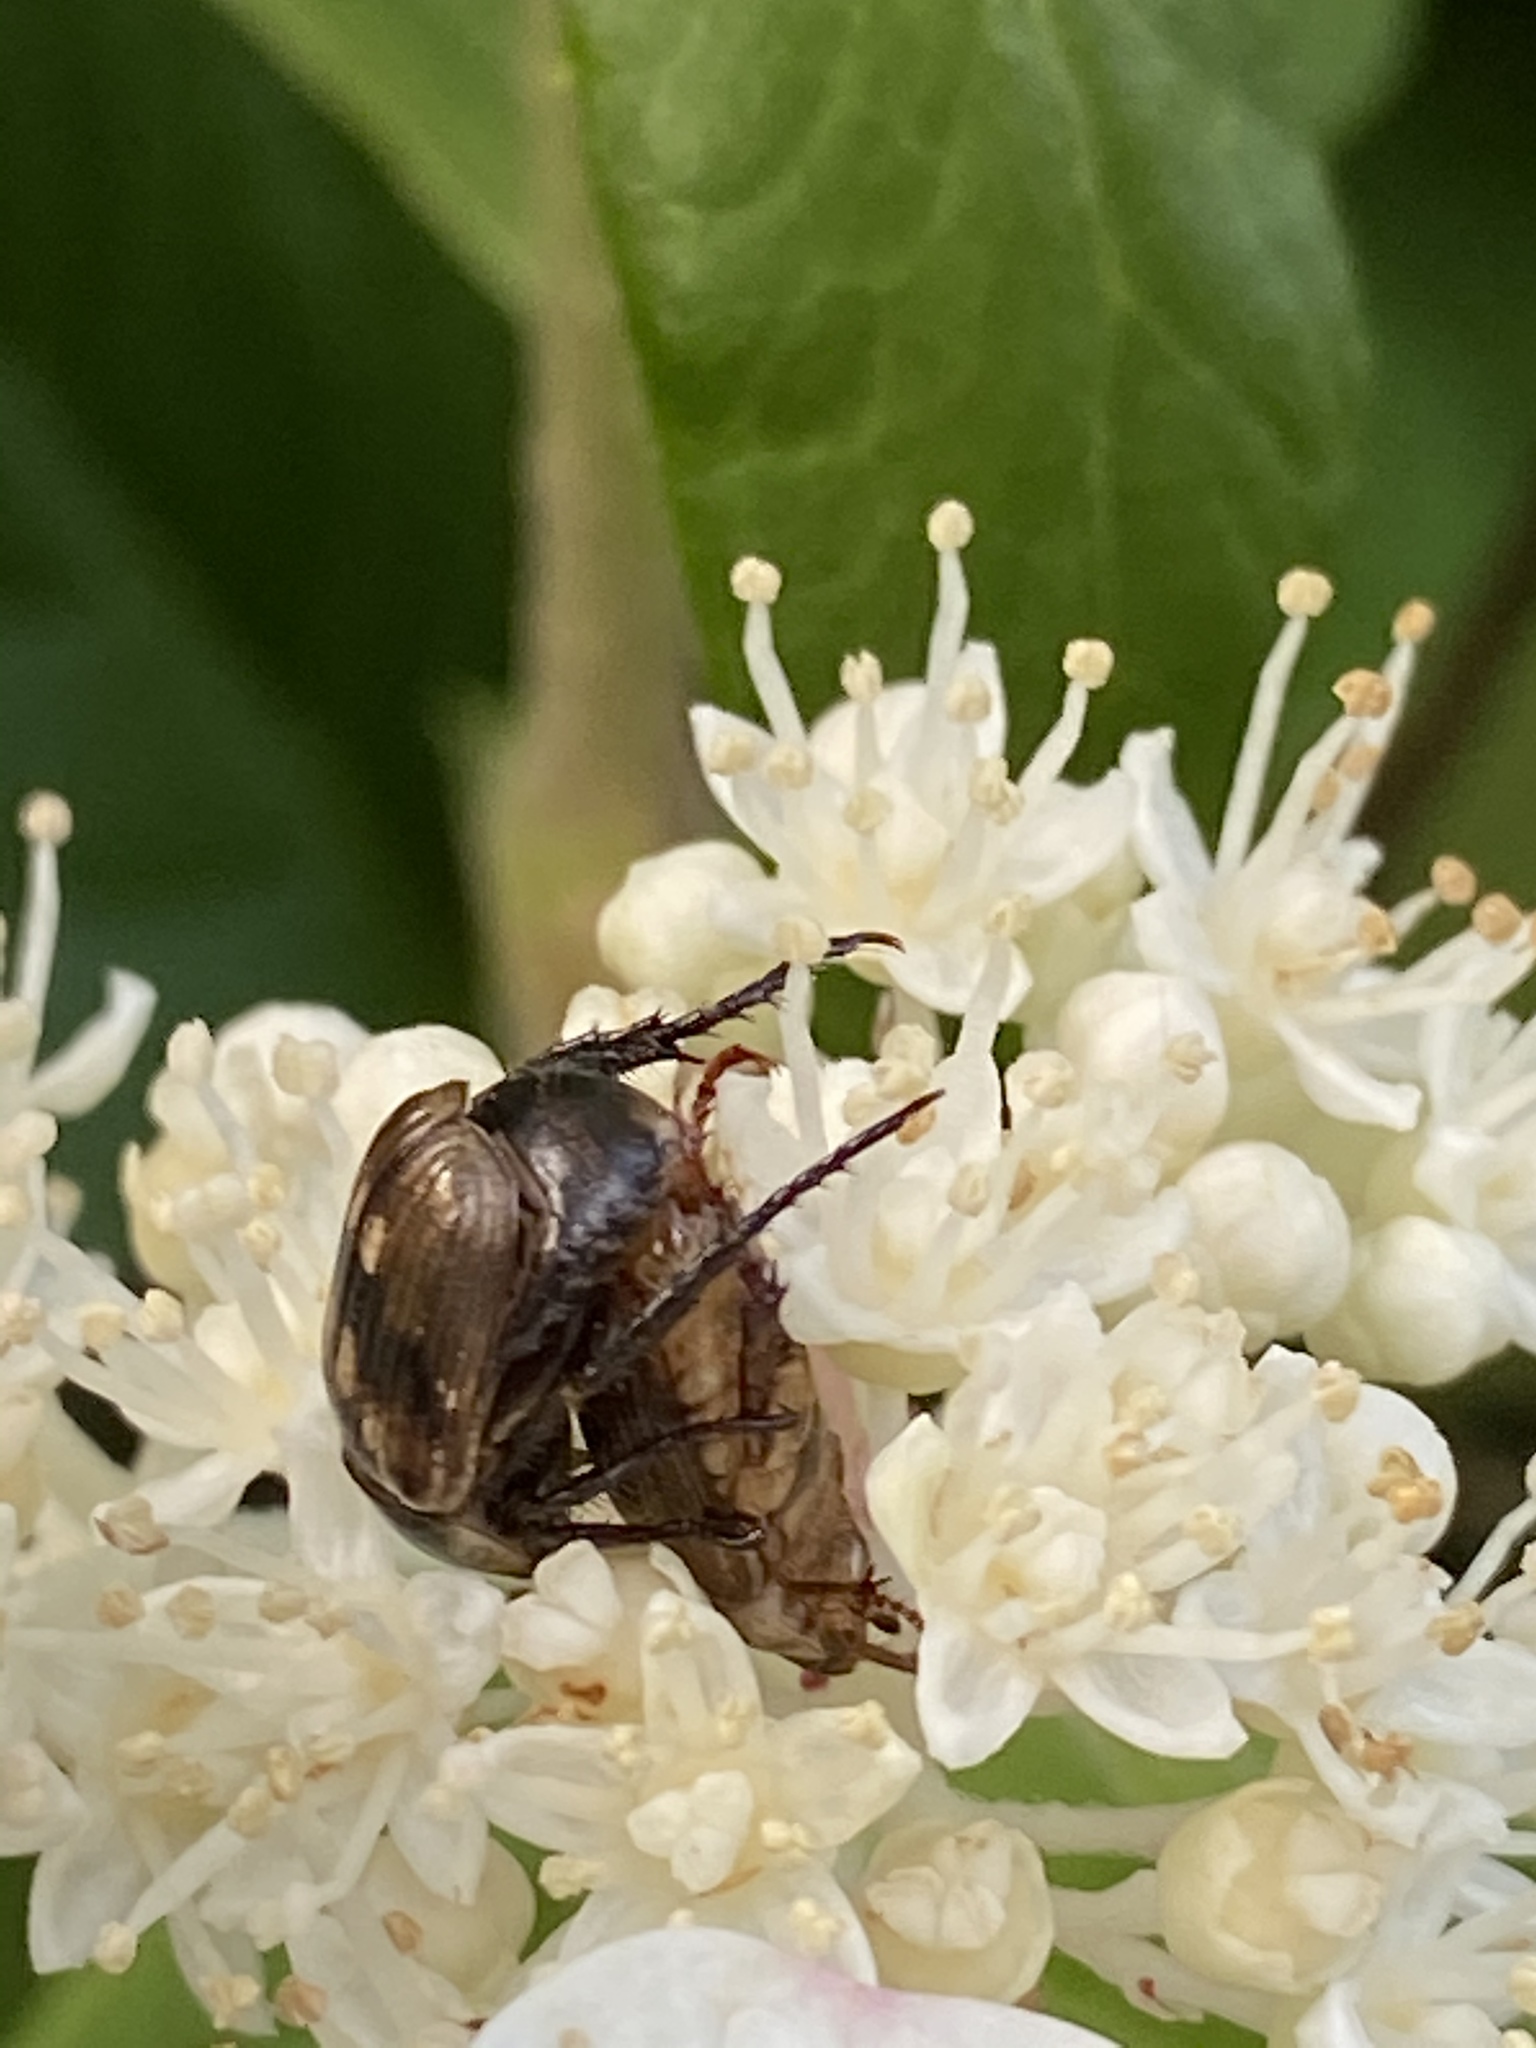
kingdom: Animalia
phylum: Arthropoda
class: Insecta
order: Coleoptera
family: Scarabaeidae
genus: Exomala
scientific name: Exomala orientalis
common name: Oriental beetle
